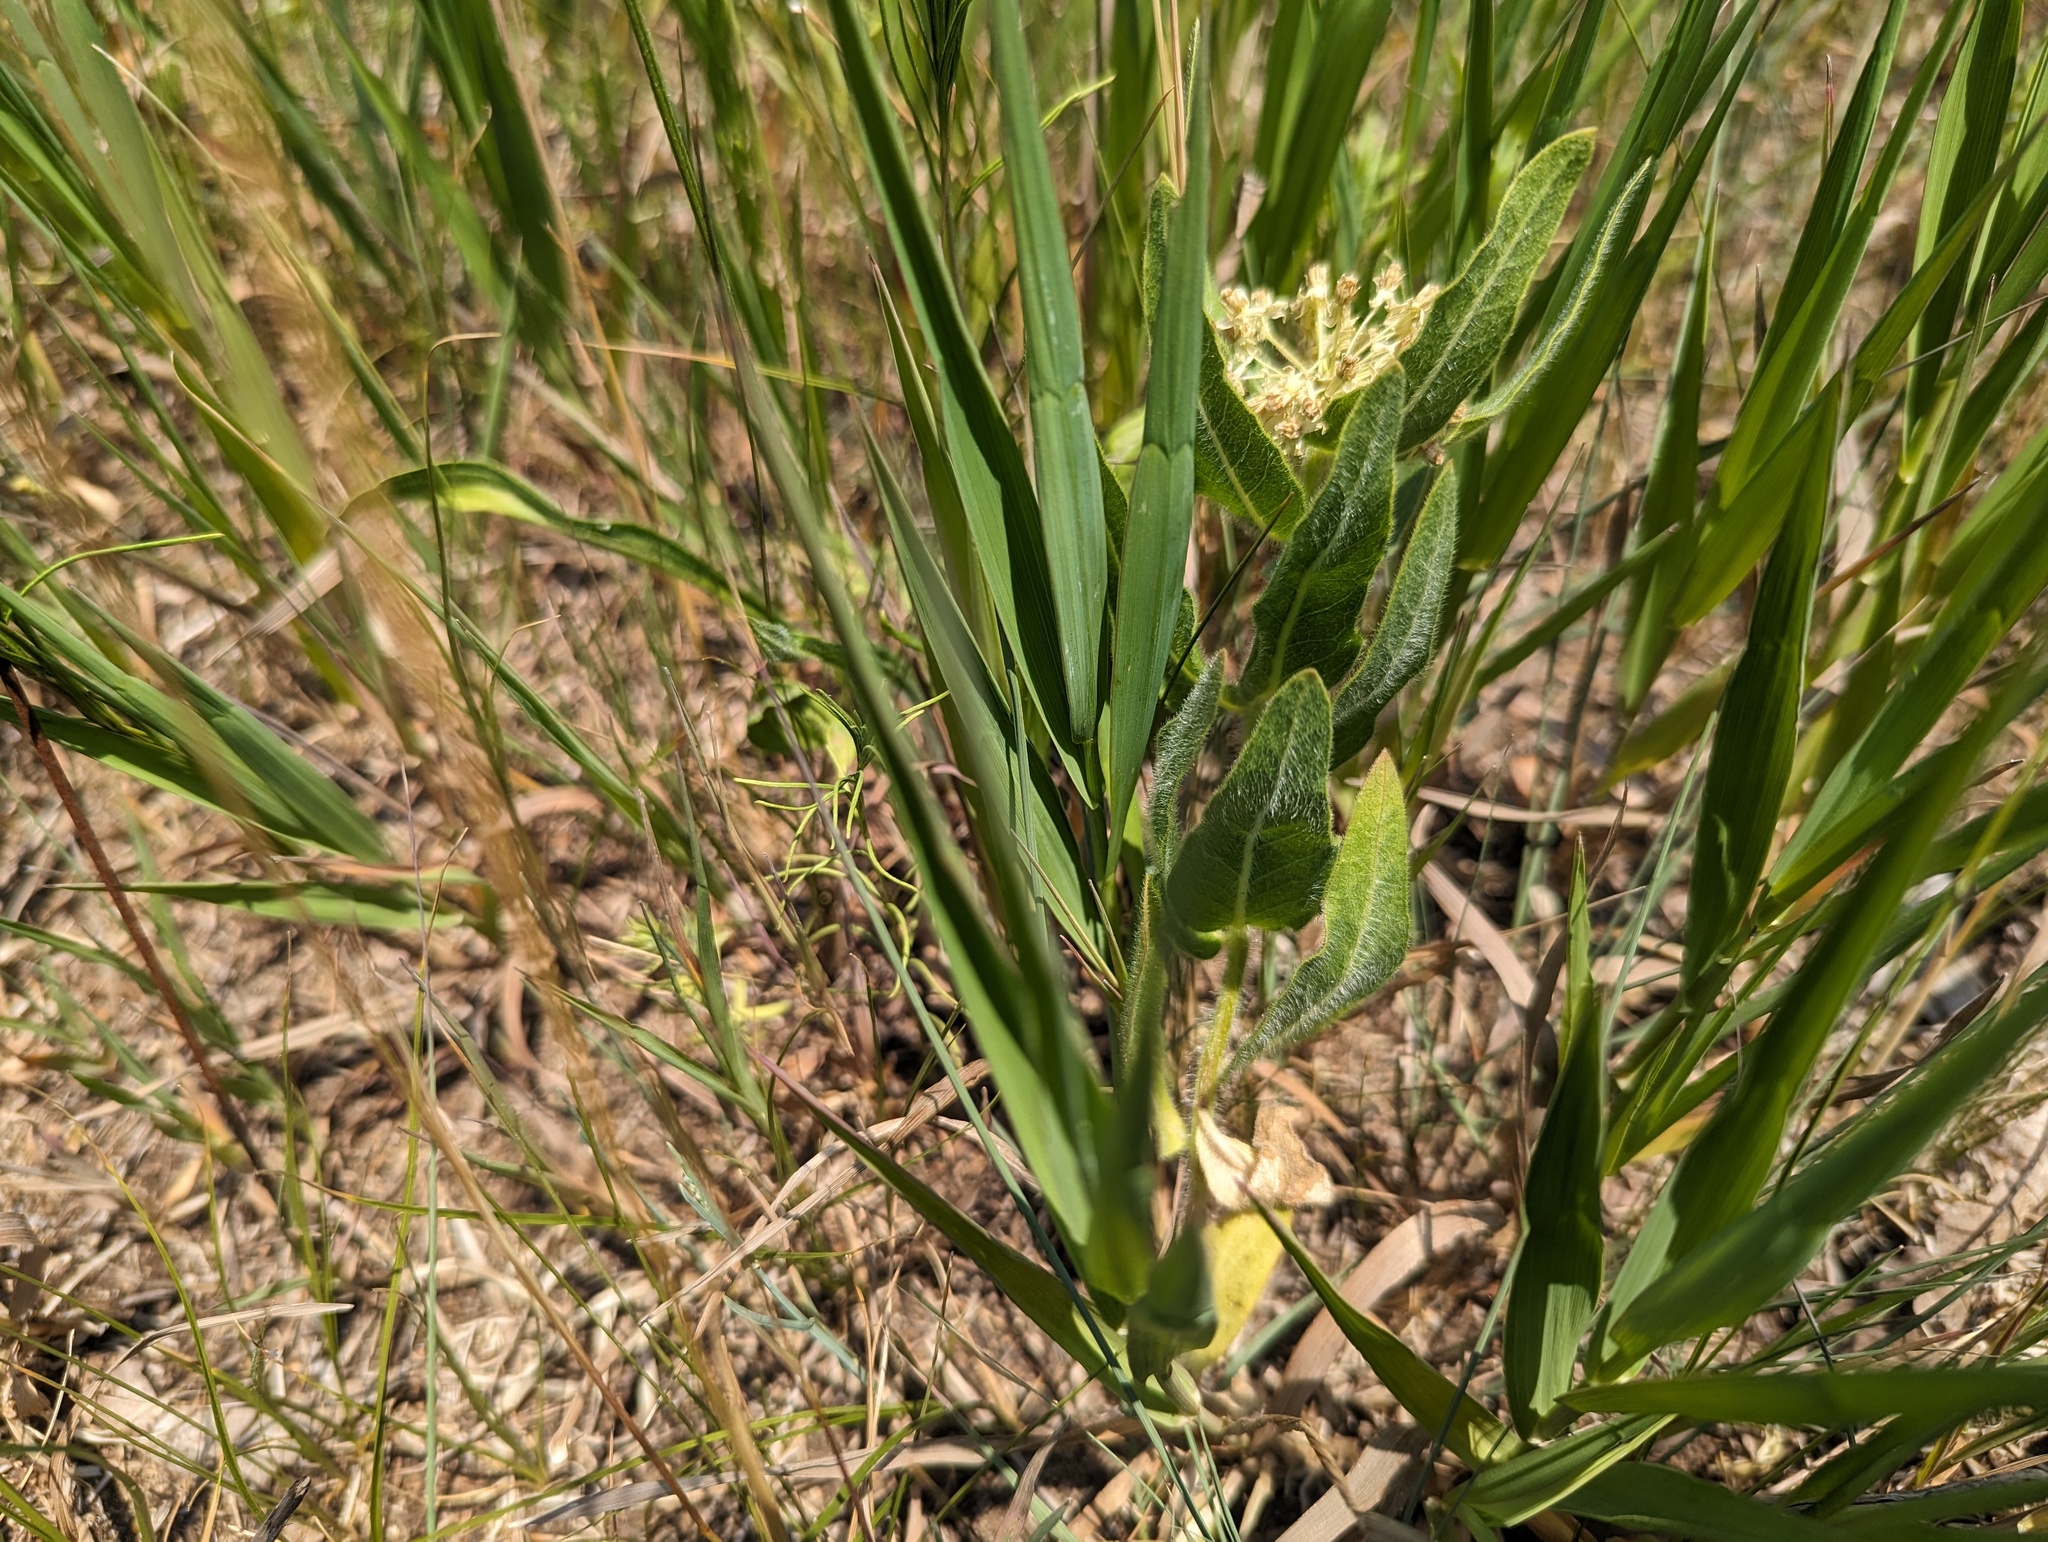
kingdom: Plantae
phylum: Tracheophyta
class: Magnoliopsida
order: Gentianales
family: Apocynaceae
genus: Asclepias
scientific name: Asclepias lanuginosa
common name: Side-cluster milkweed
